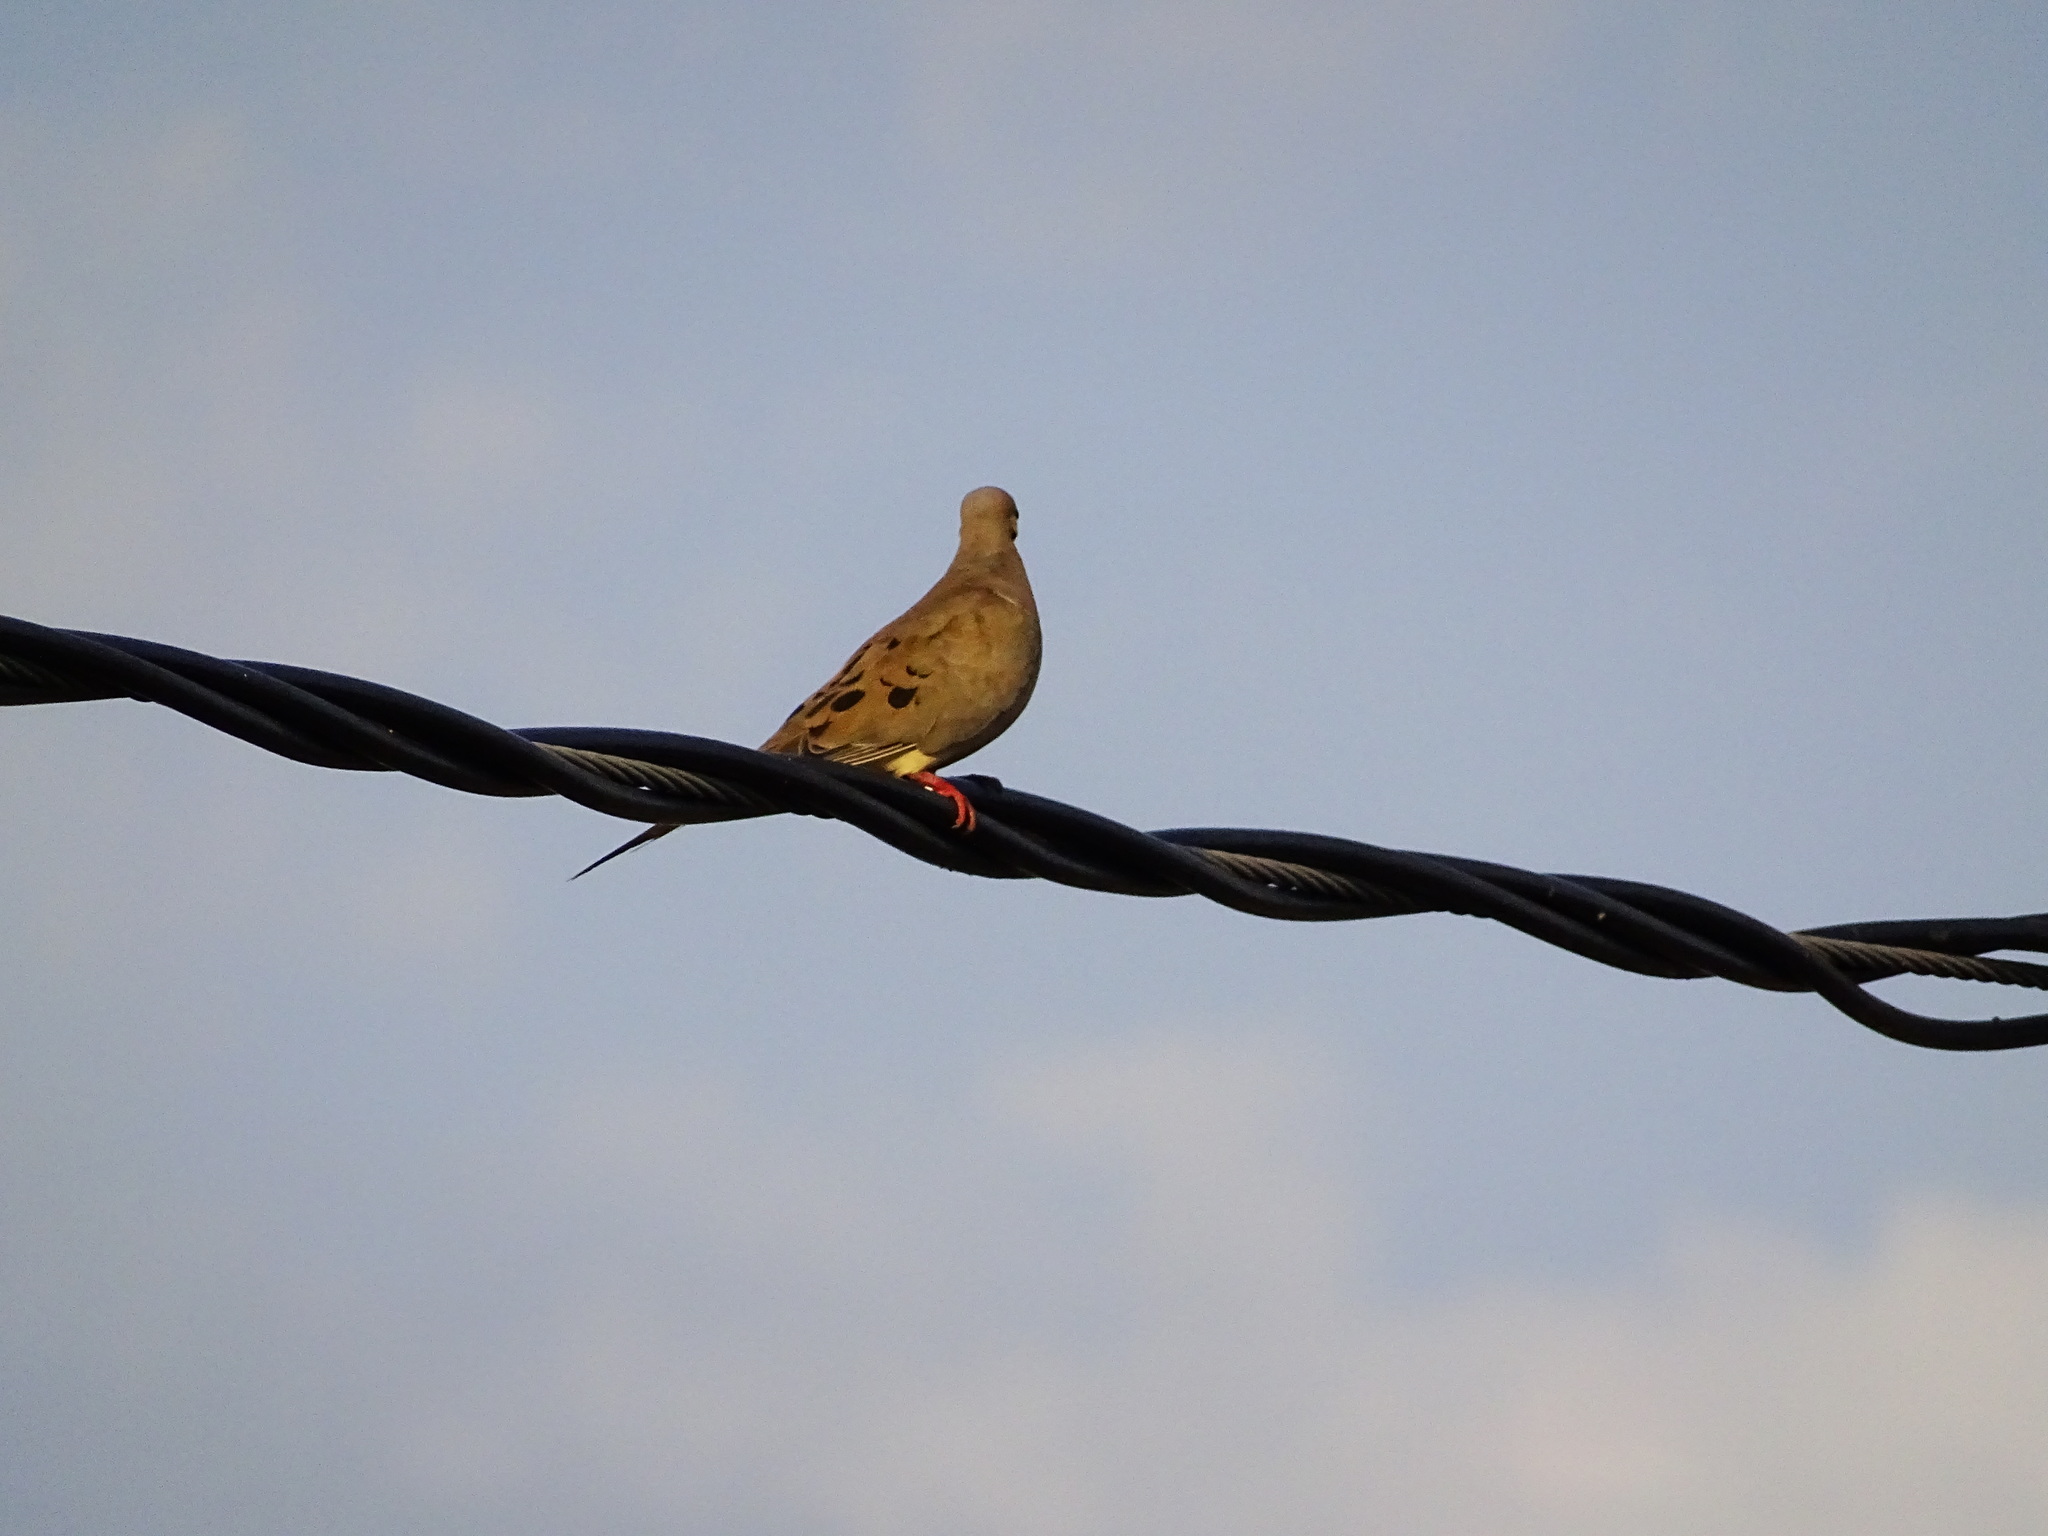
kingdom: Animalia
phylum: Chordata
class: Aves
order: Columbiformes
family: Columbidae
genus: Zenaida
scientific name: Zenaida macroura
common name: Mourning dove
